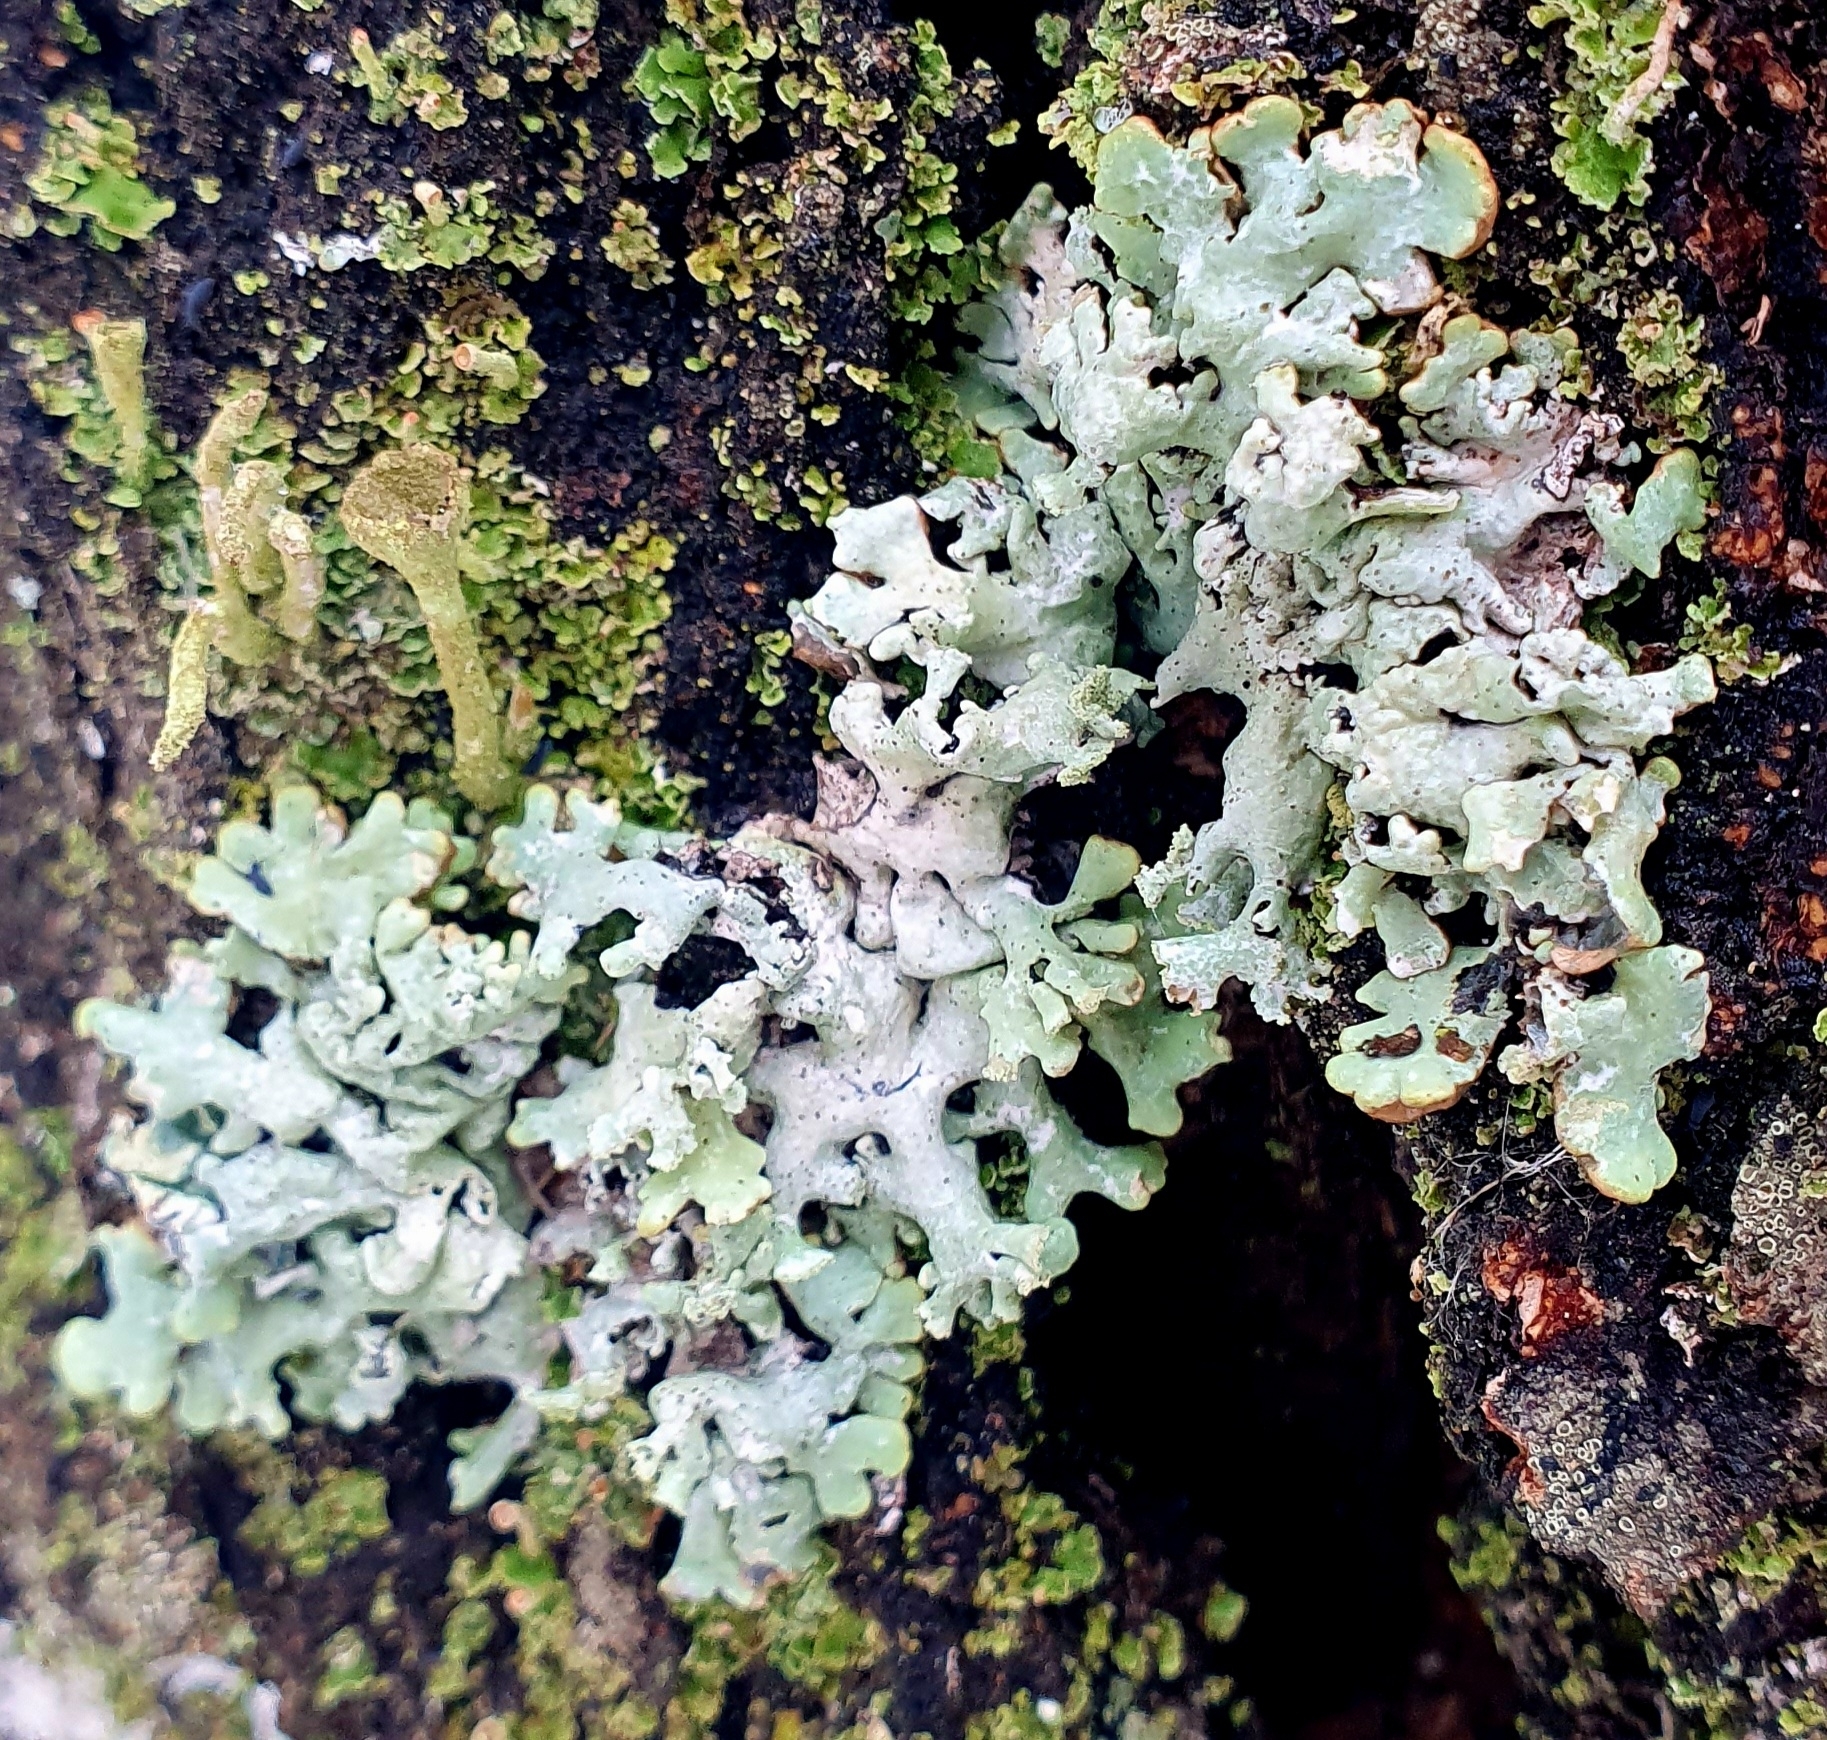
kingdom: Fungi
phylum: Ascomycota
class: Lecanoromycetes
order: Lecanorales
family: Parmeliaceae
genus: Hypogymnia
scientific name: Hypogymnia physodes
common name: Dark crottle
